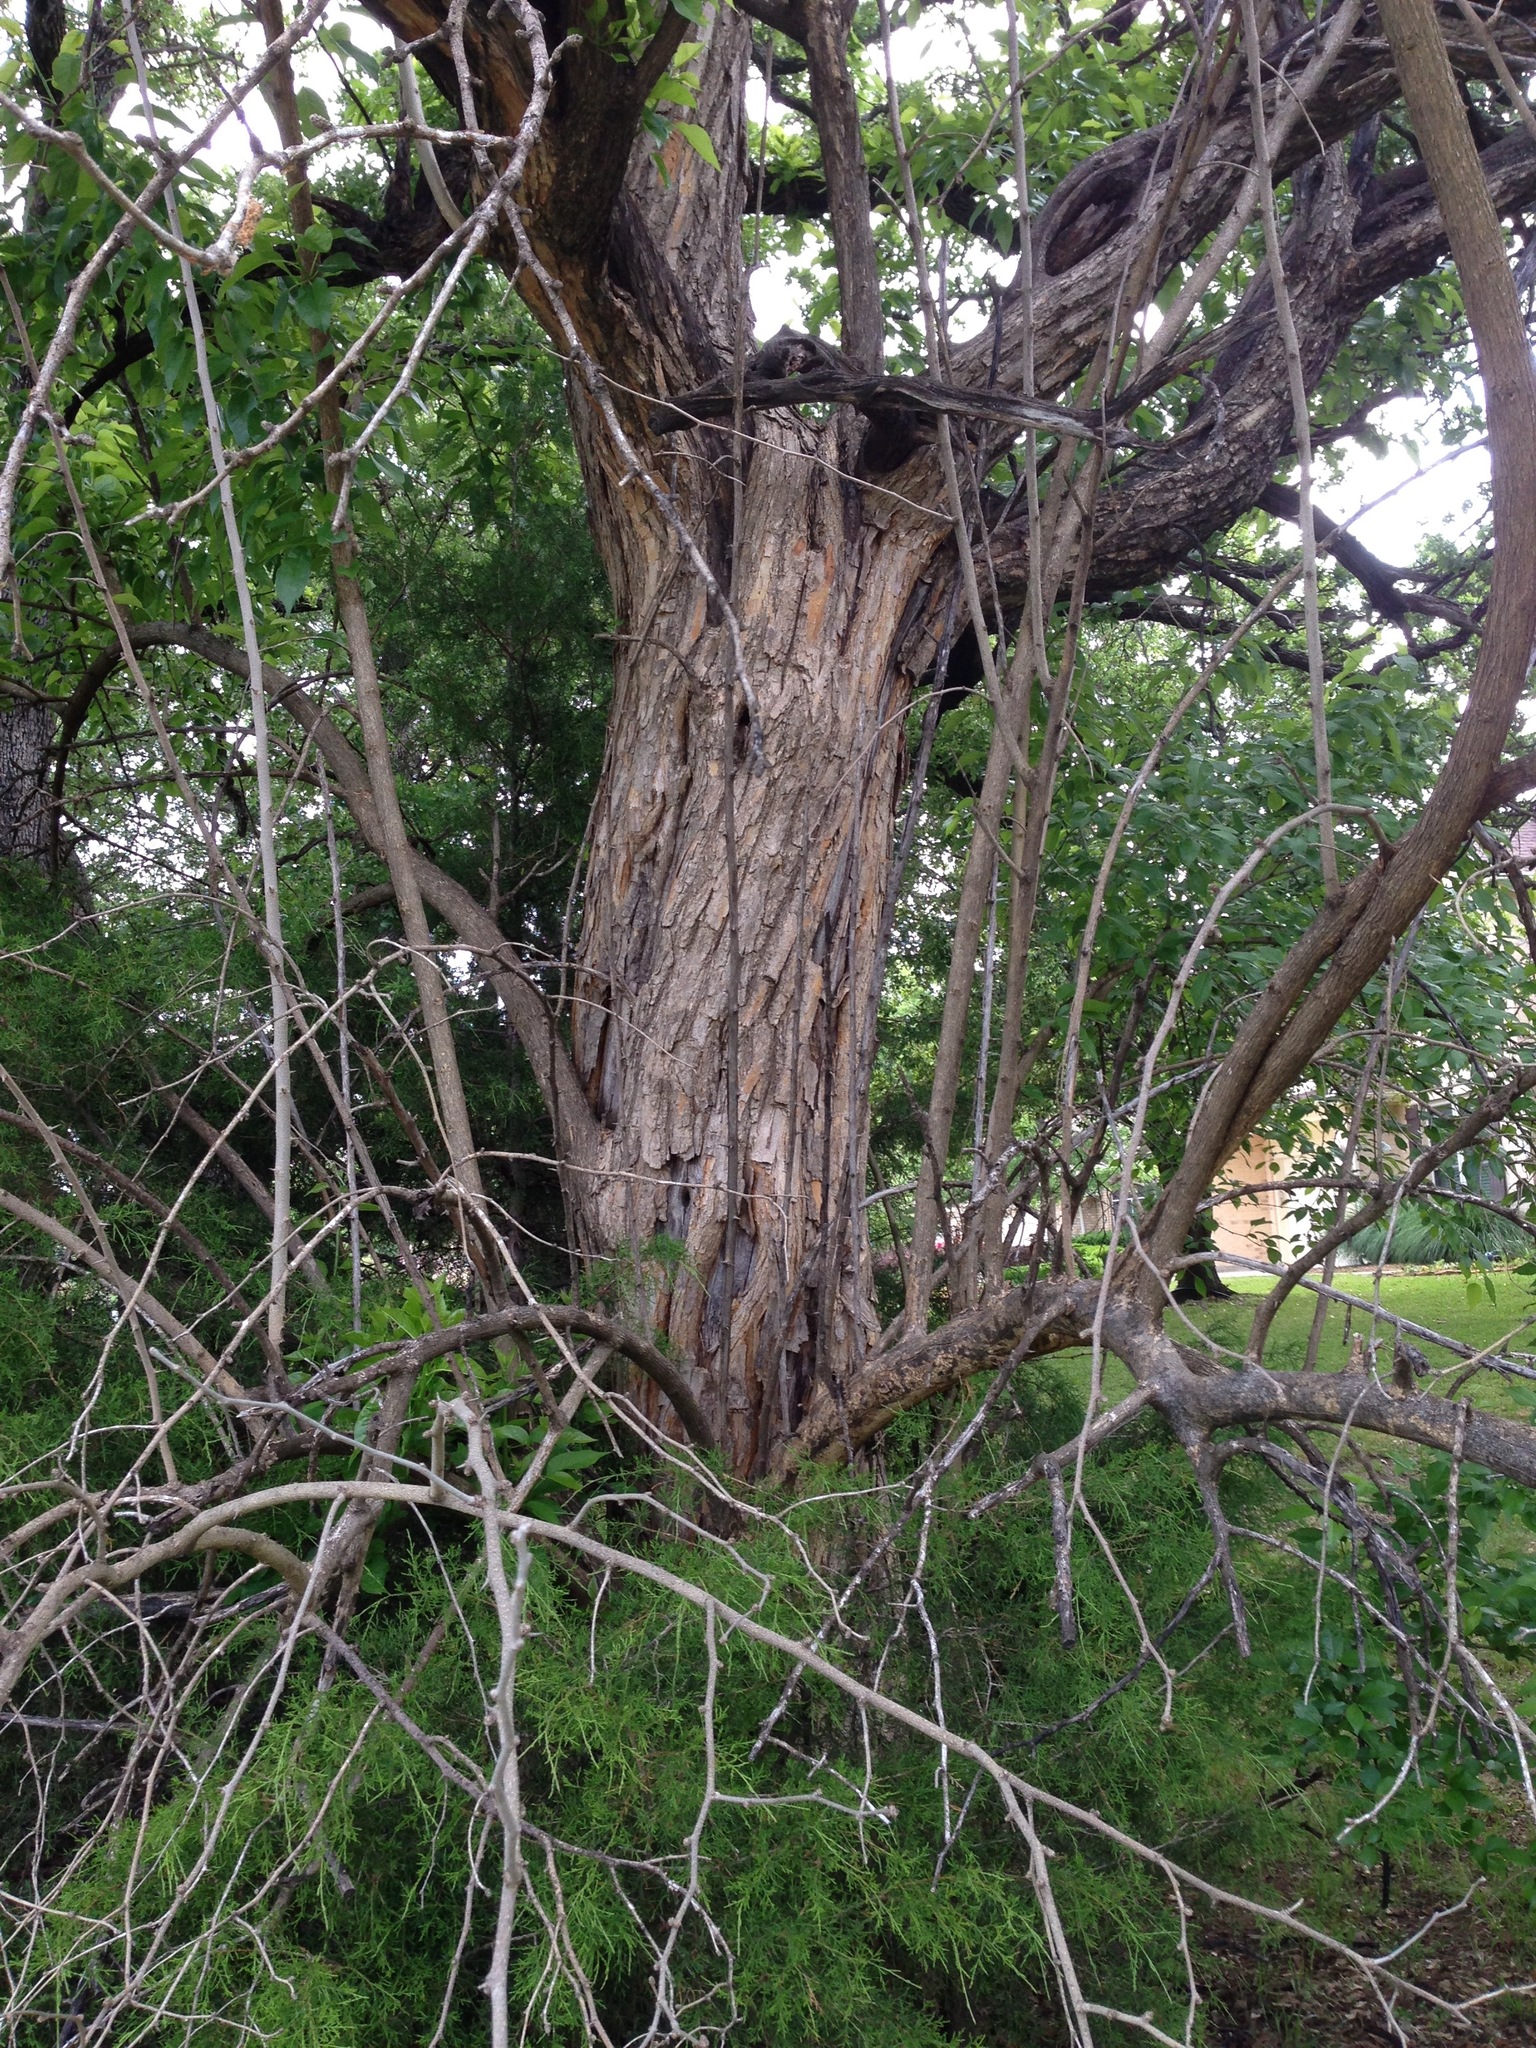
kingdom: Plantae
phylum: Tracheophyta
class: Magnoliopsida
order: Rosales
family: Moraceae
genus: Maclura
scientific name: Maclura pomifera
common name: Osage-orange
